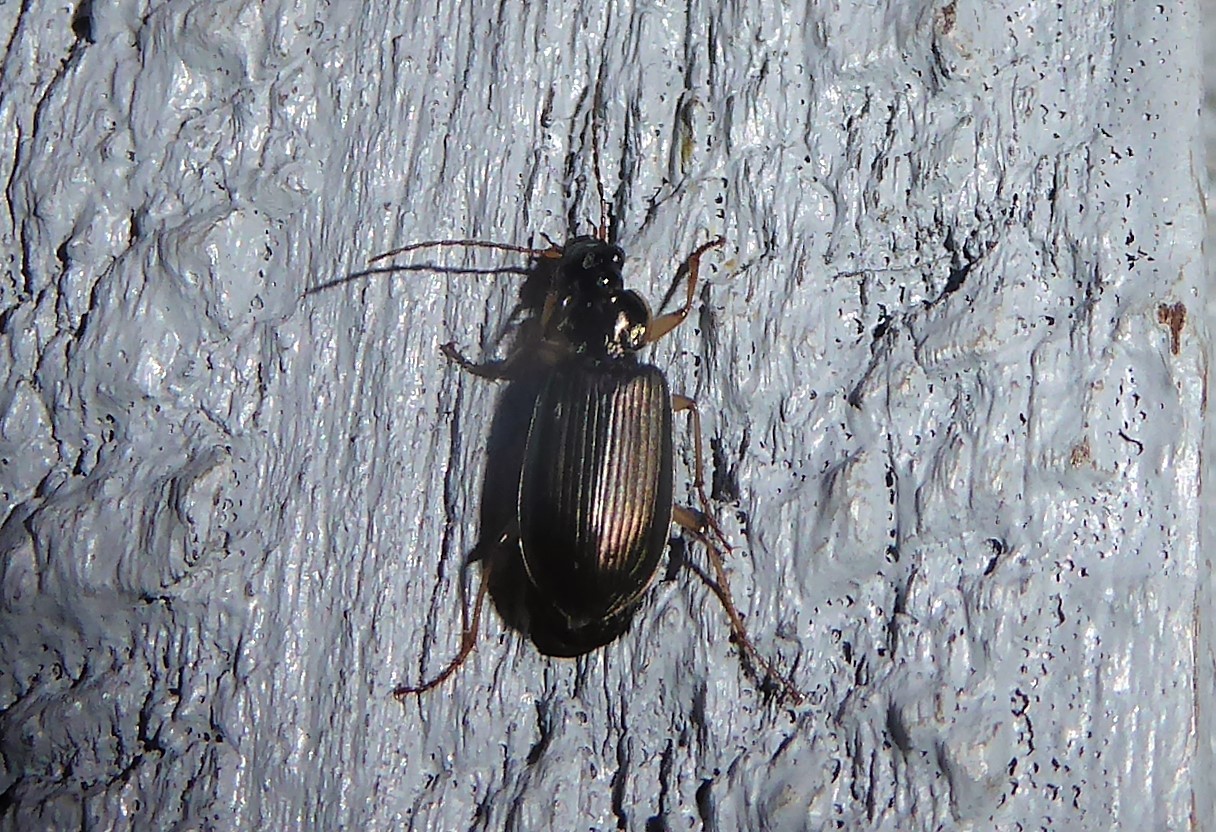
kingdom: Animalia
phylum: Arthropoda
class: Insecta
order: Coleoptera
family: Carabidae
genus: Notagonum
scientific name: Notagonum submetallicum
